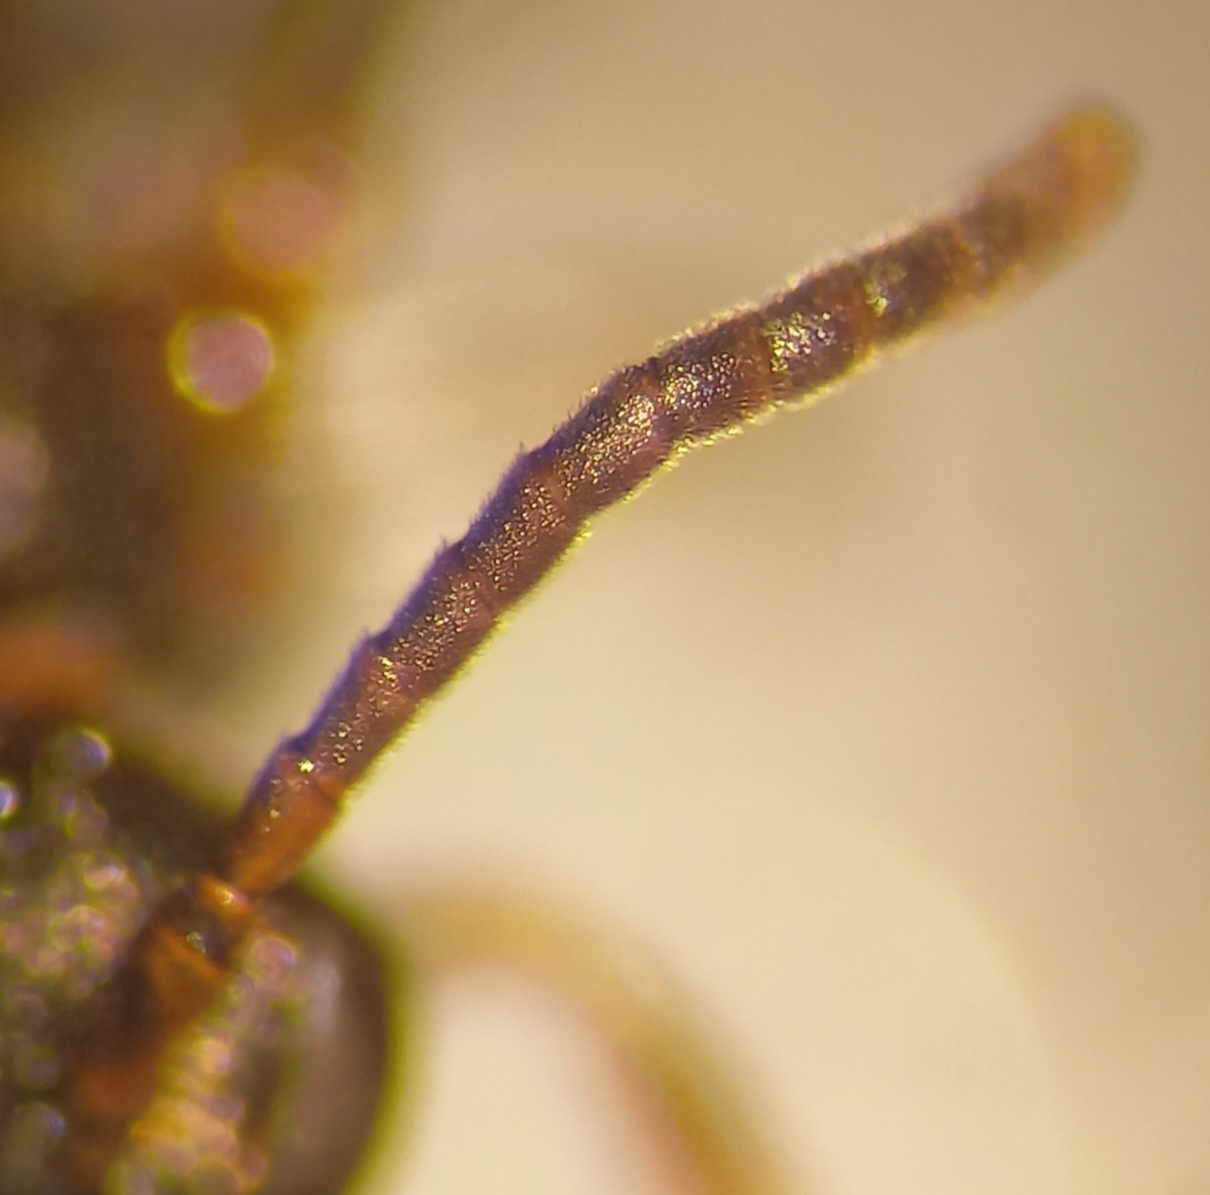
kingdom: Animalia
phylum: Arthropoda
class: Insecta
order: Hymenoptera
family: Apidae
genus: Nomada
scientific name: Nomada sheppardana
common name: Dark nomad bee
